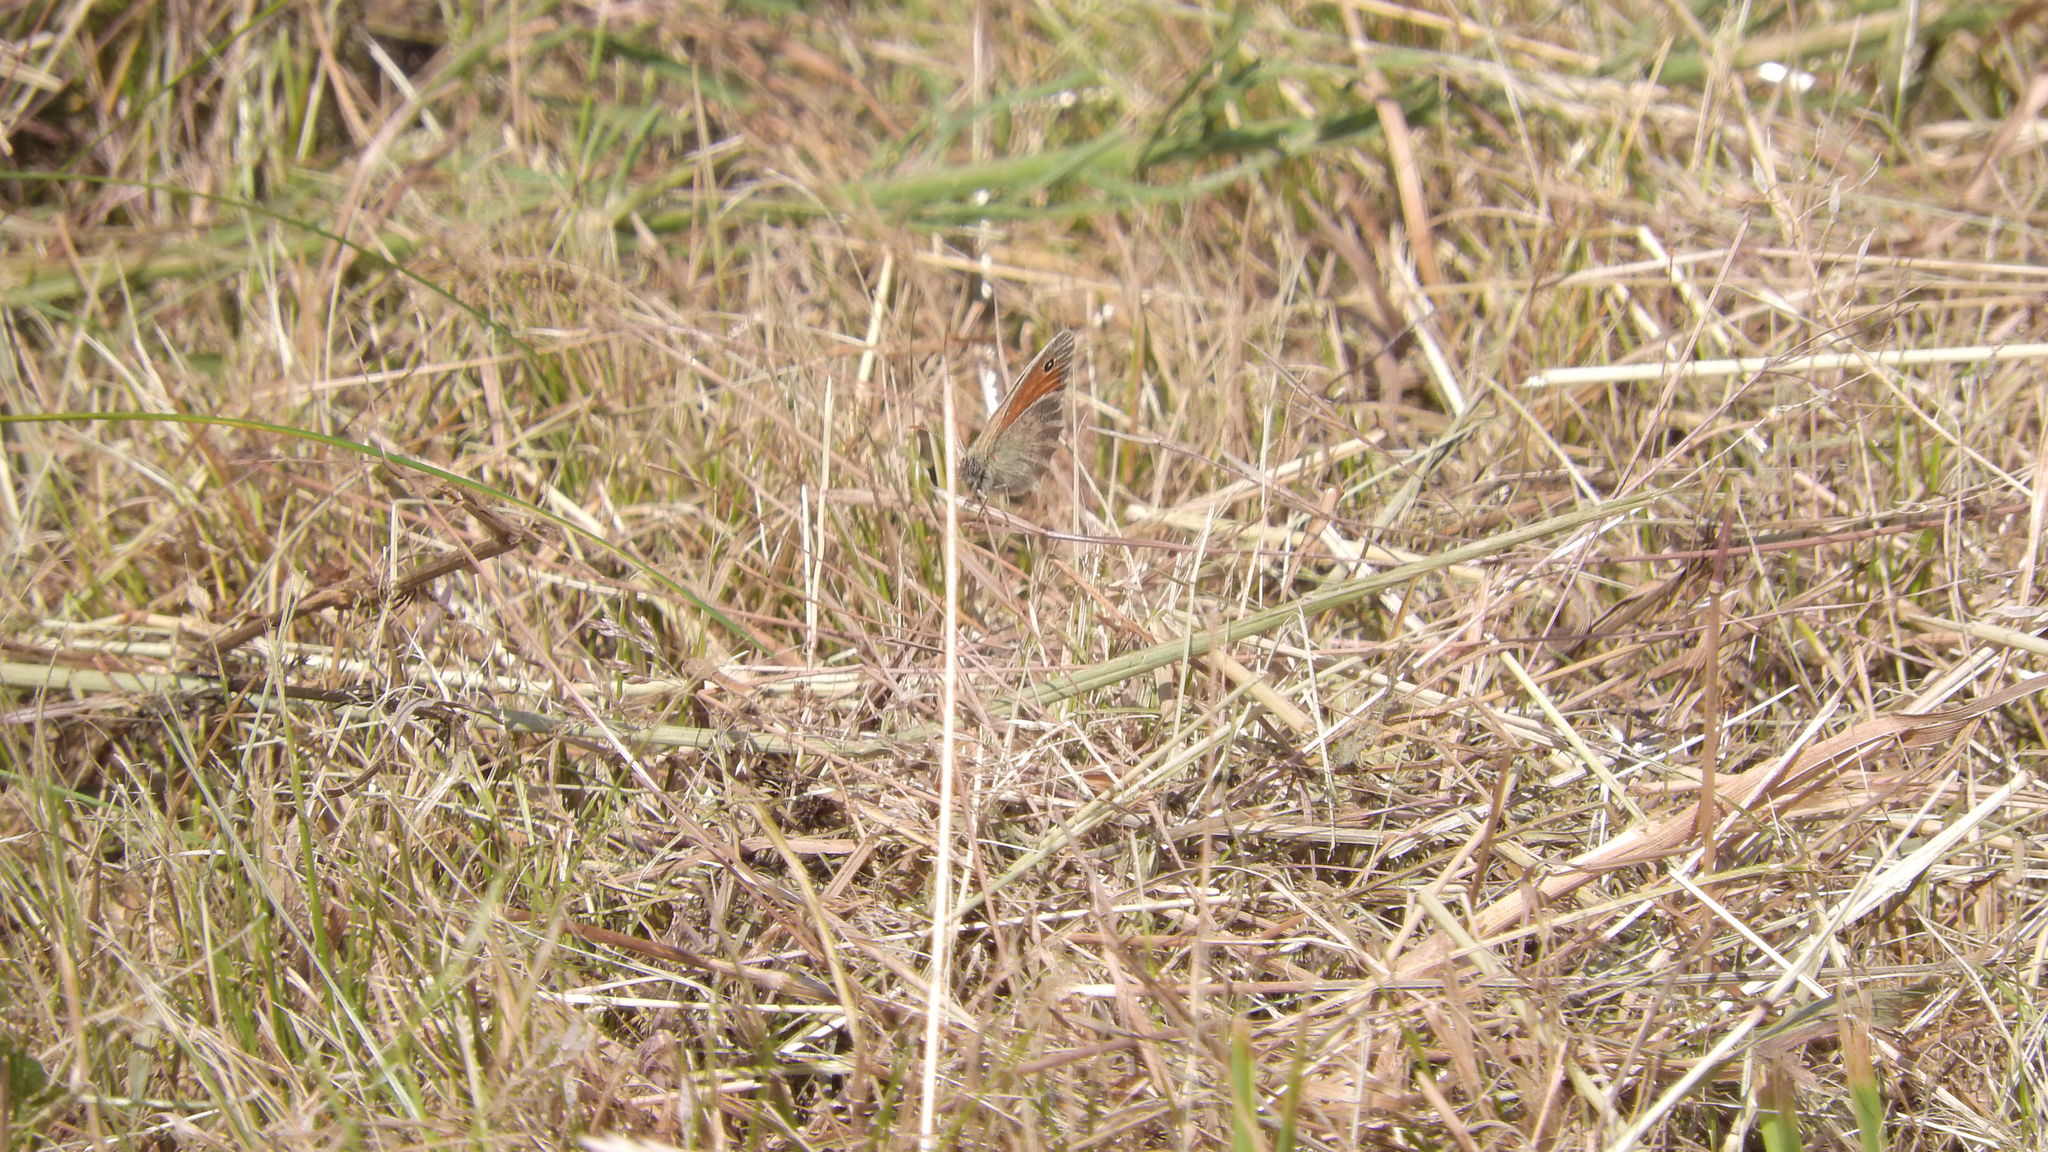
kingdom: Animalia
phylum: Arthropoda
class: Insecta
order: Lepidoptera
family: Nymphalidae
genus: Coenonympha
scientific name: Coenonympha pamphilus
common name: Small heath
